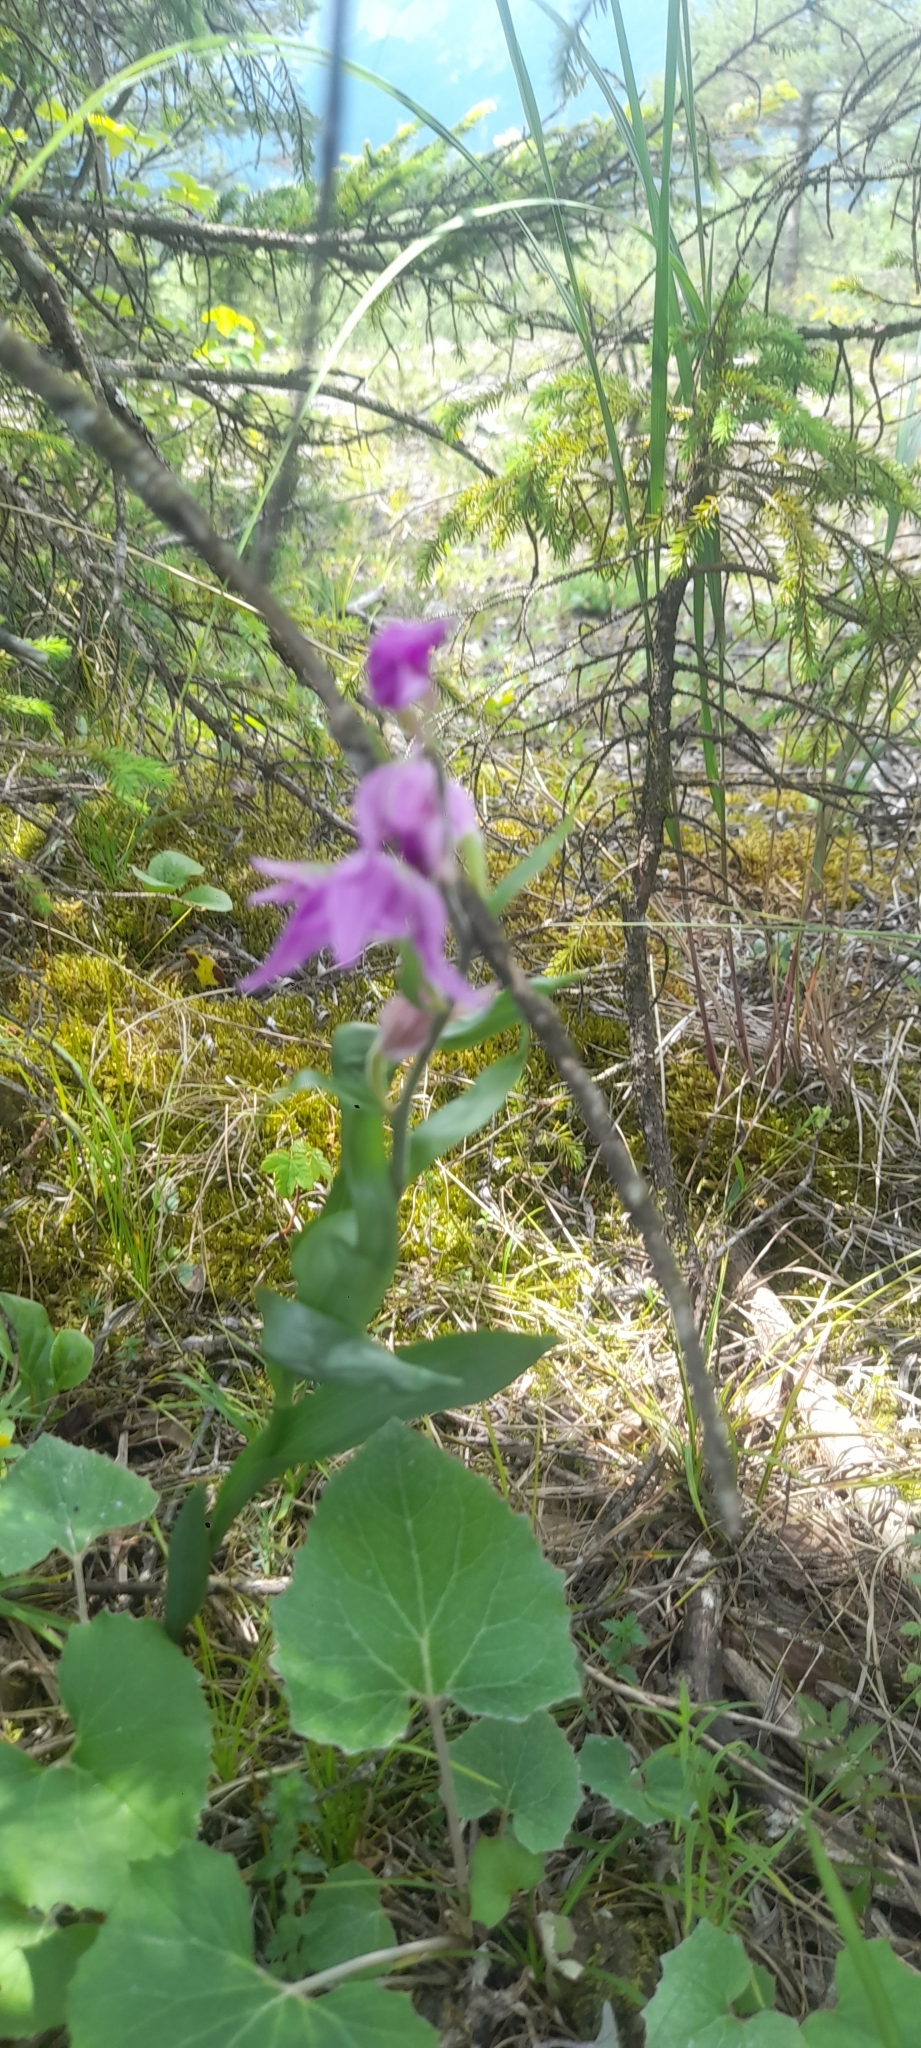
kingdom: Plantae
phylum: Tracheophyta
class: Liliopsida
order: Asparagales
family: Orchidaceae
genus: Cephalanthera
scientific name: Cephalanthera rubra
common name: Red helleborine
